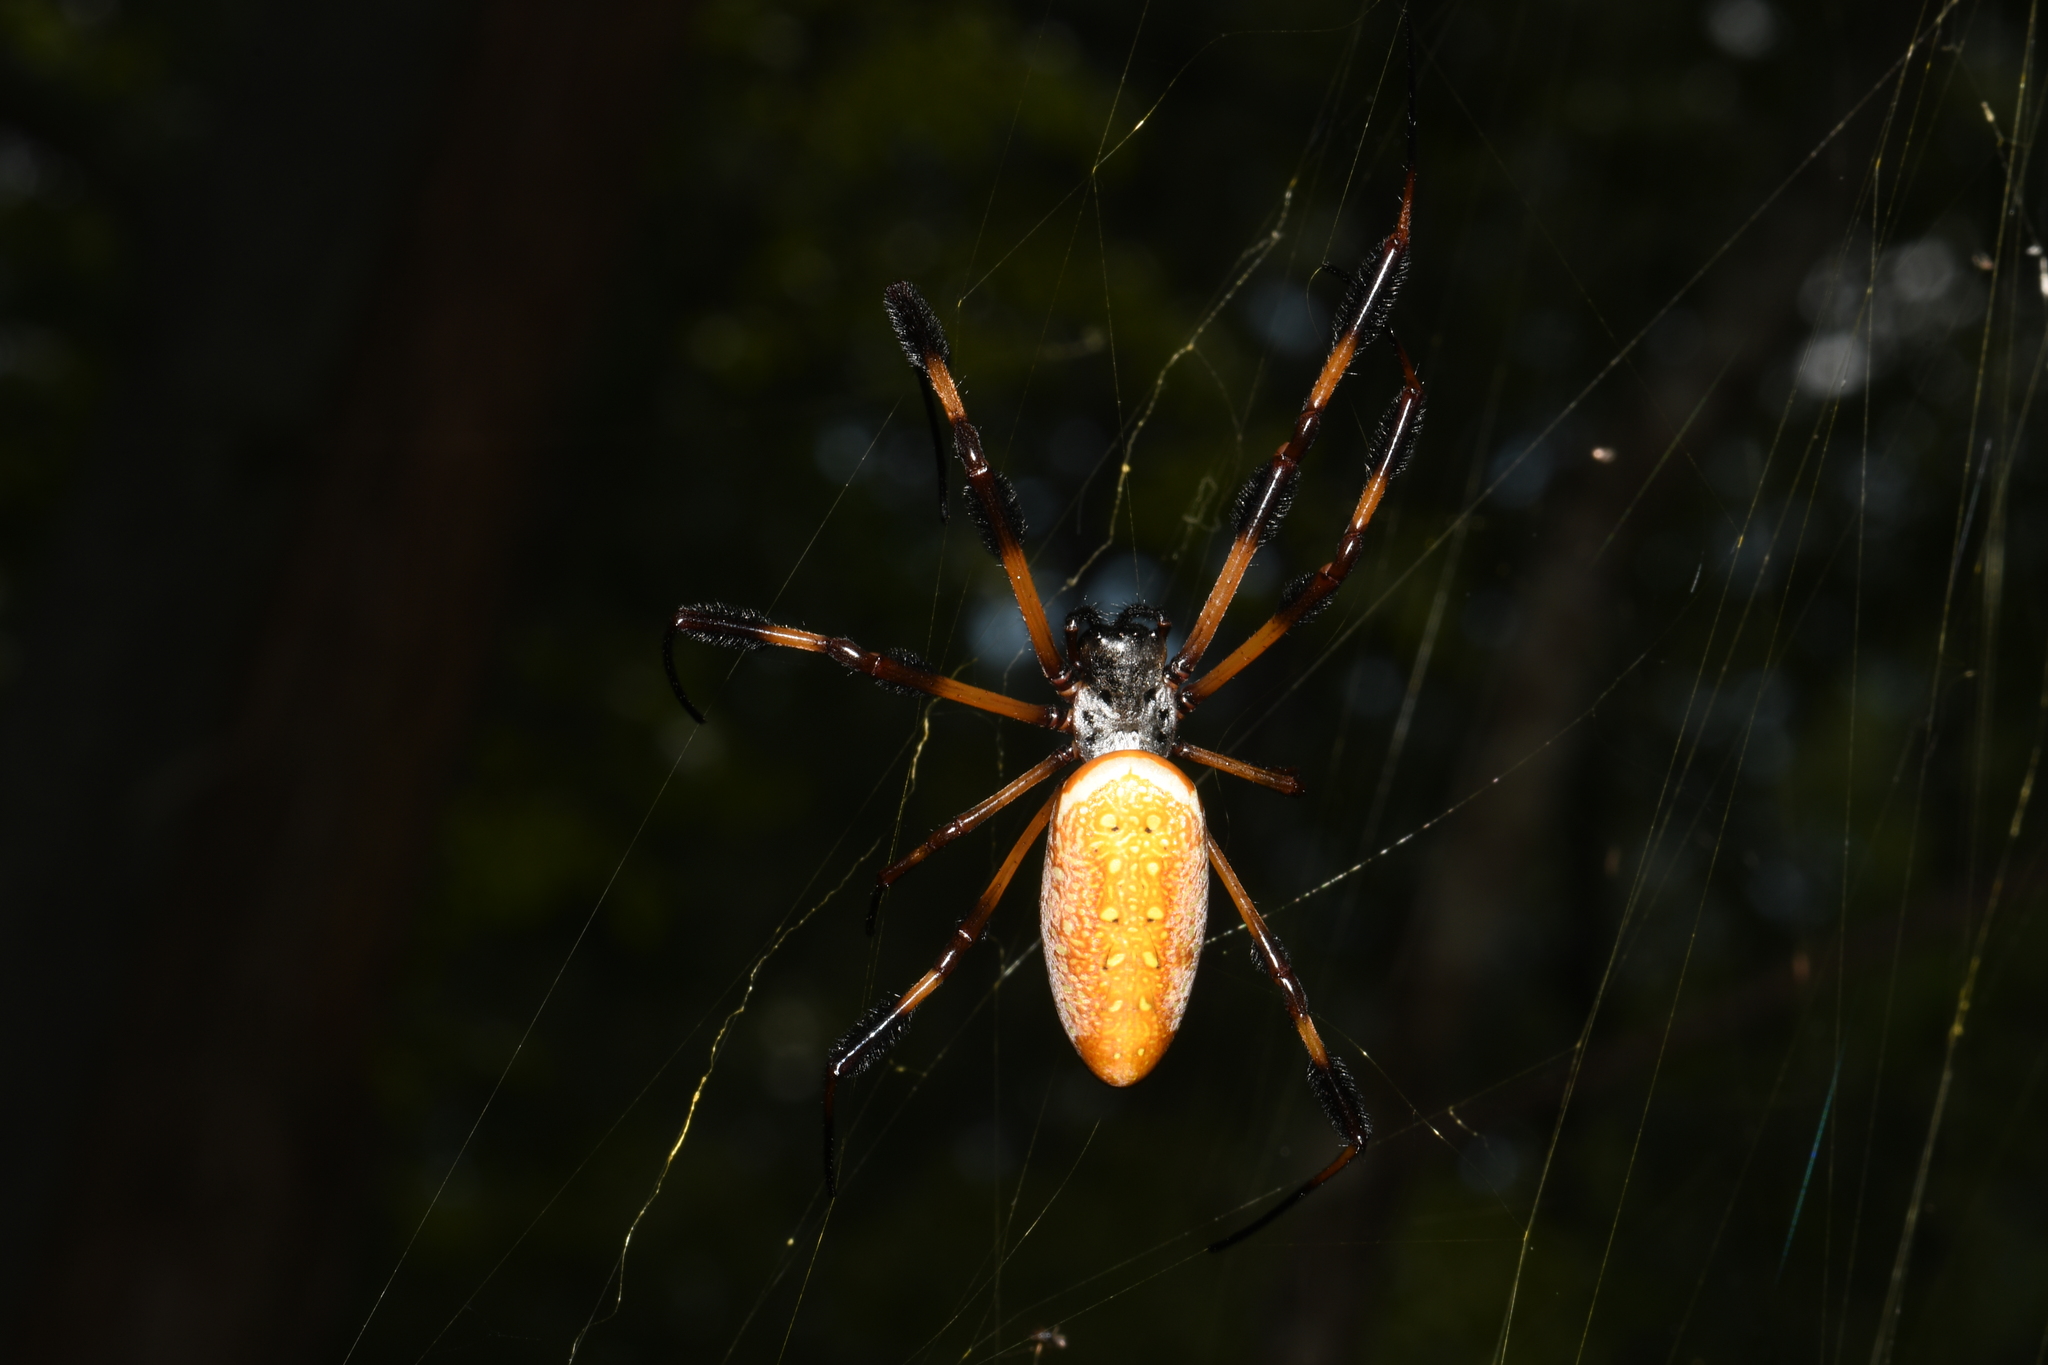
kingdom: Animalia
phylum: Arthropoda
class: Arachnida
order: Araneae
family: Araneidae
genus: Trichonephila
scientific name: Trichonephila clavipes
